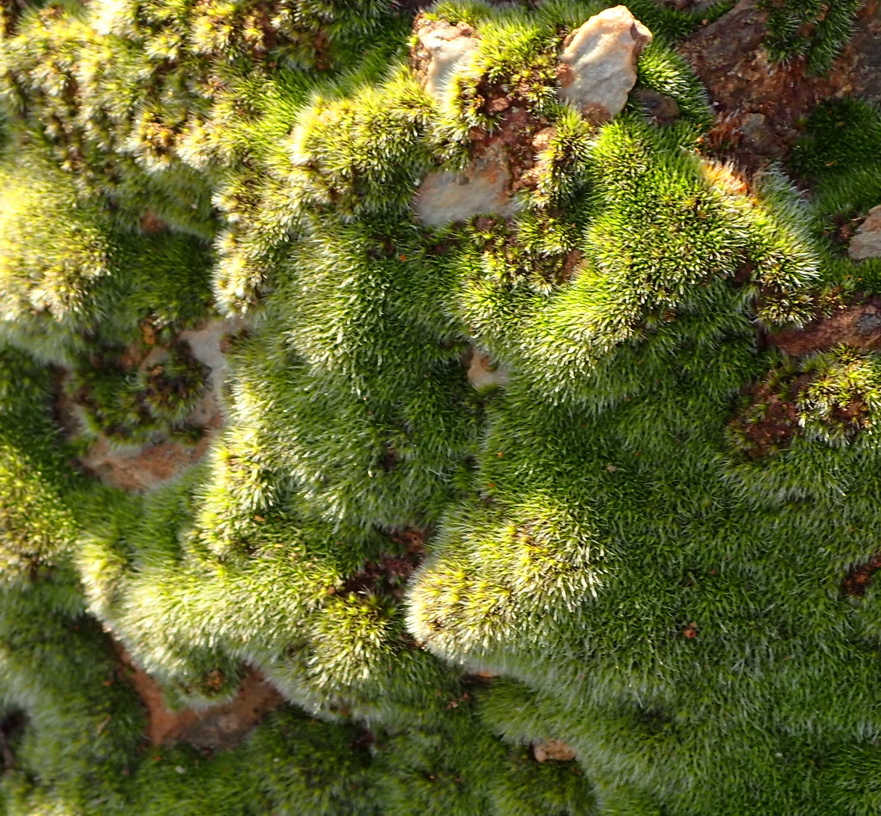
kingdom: Plantae
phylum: Bryophyta
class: Bryopsida
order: Grimmiales
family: Grimmiaceae
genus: Grimmia
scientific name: Grimmia laevigata
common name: Hoary grimmia
